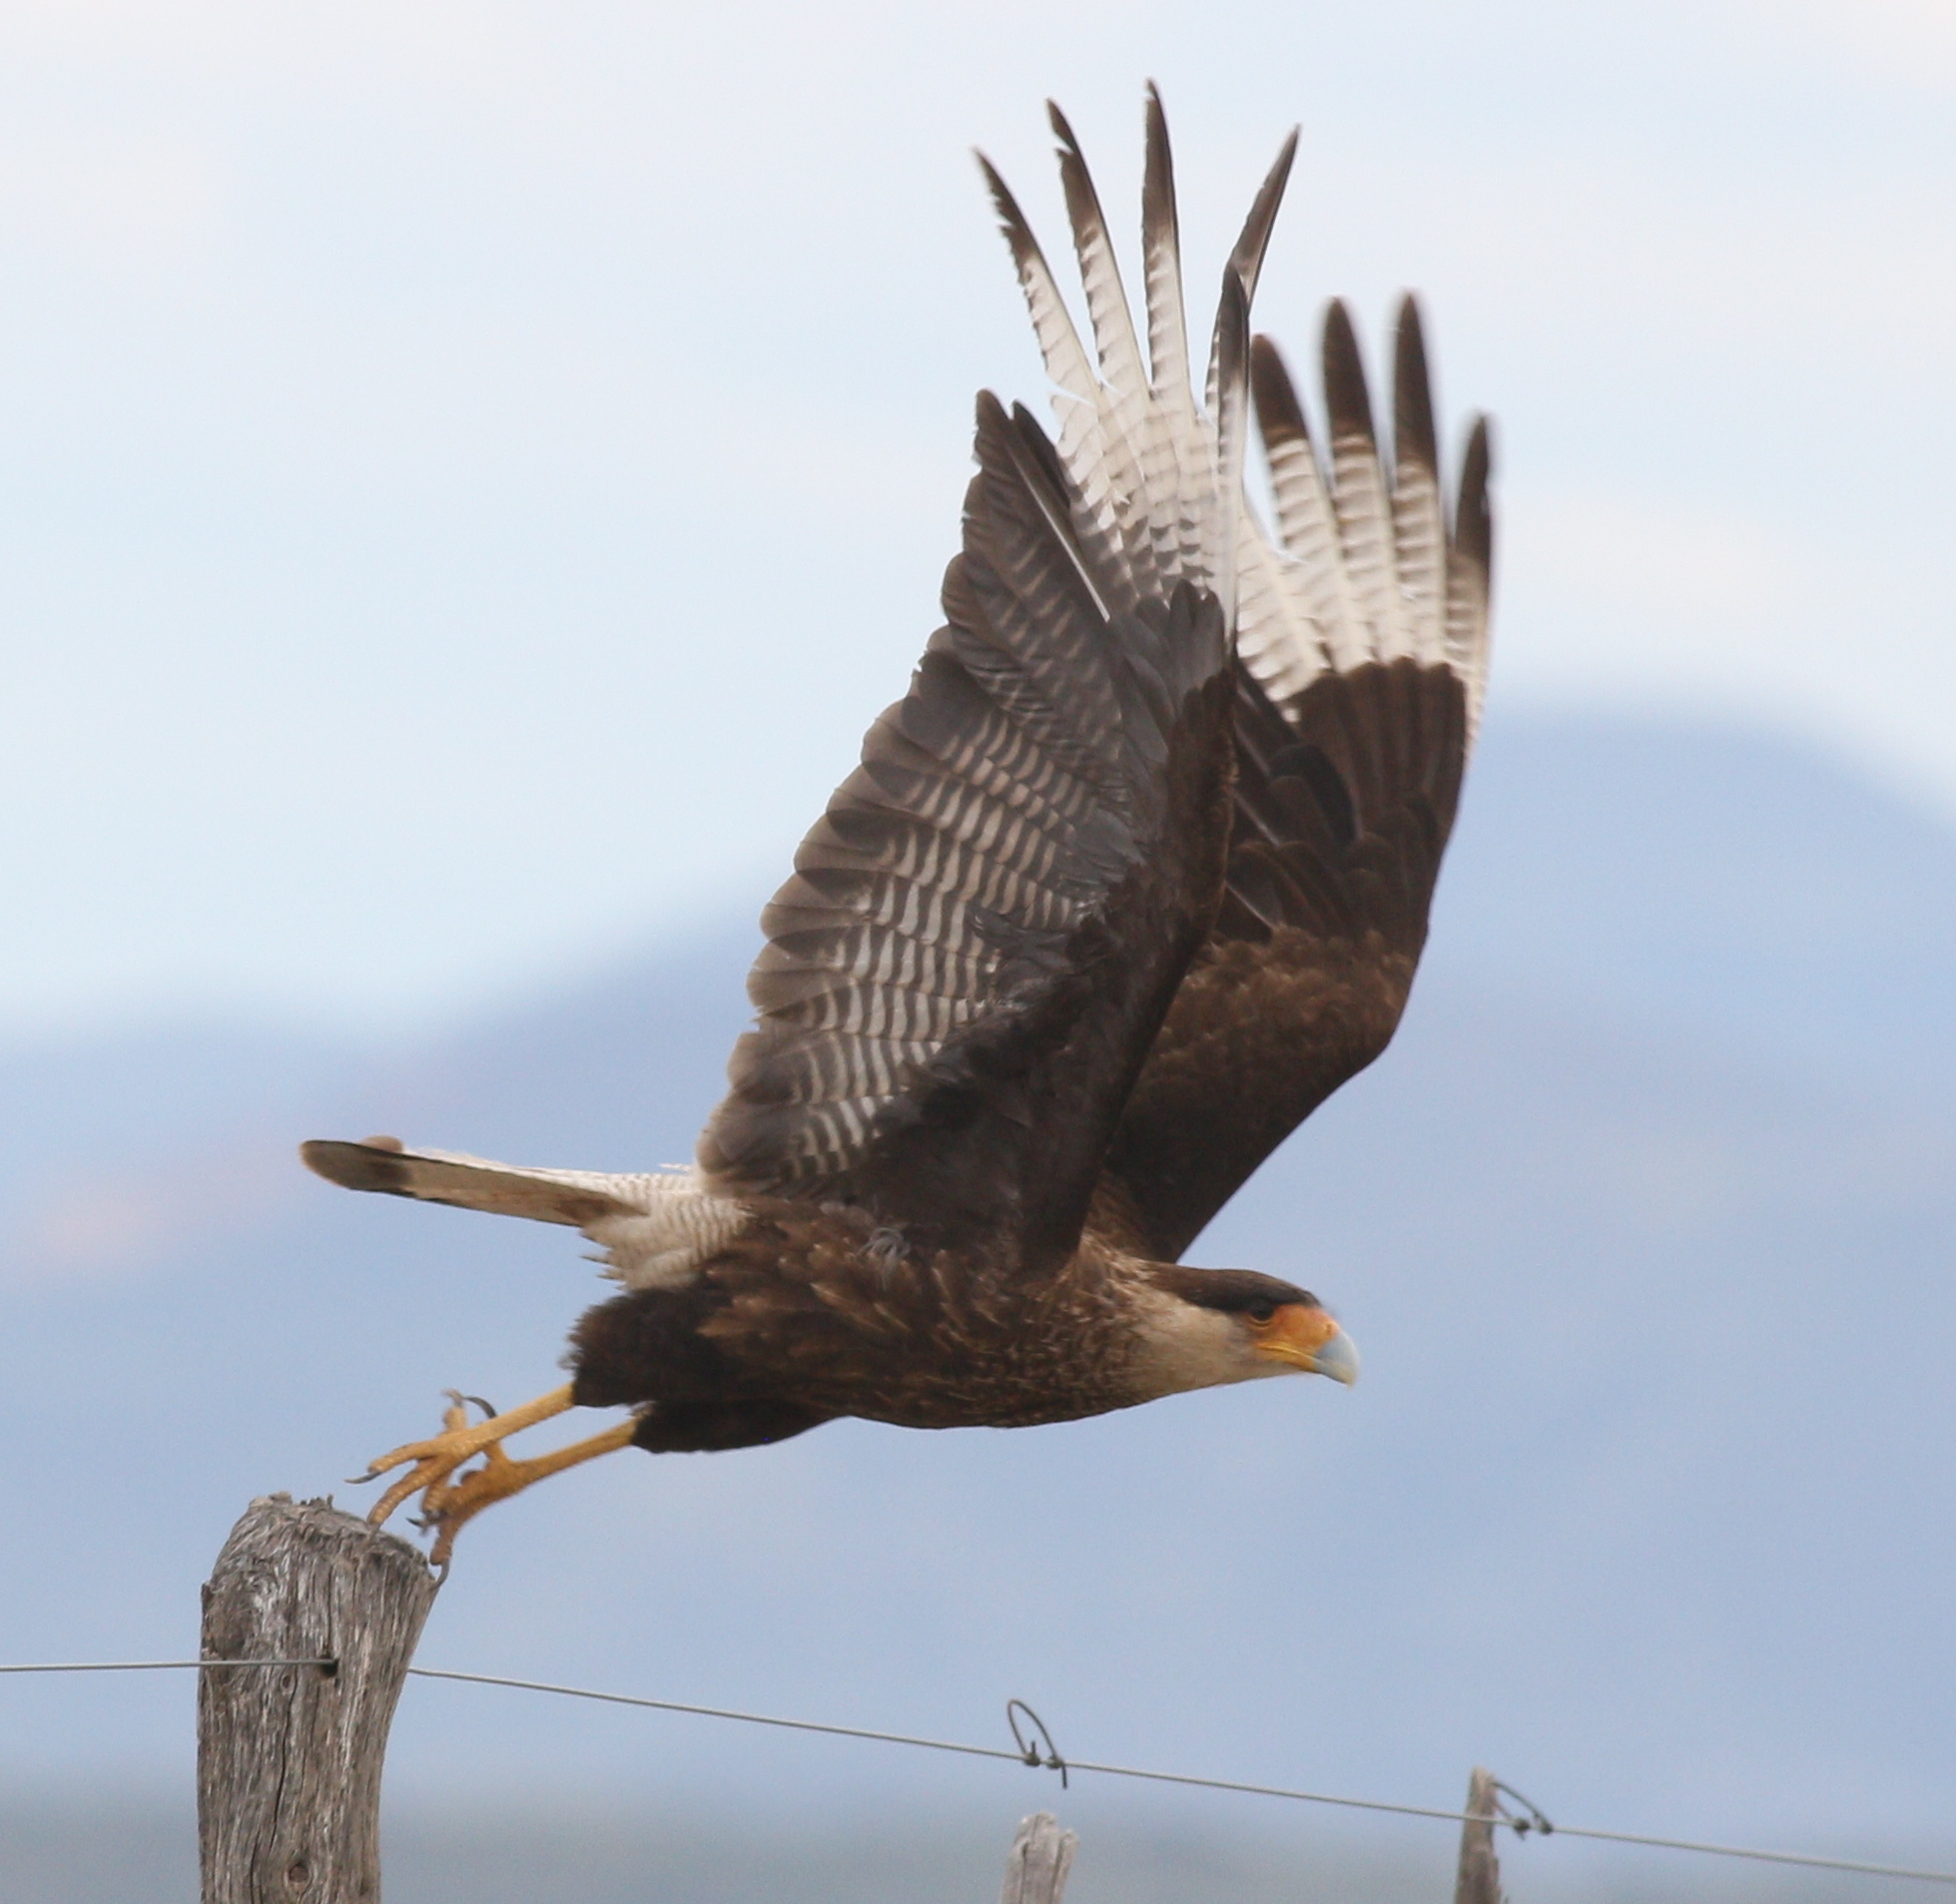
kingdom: Animalia
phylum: Chordata
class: Aves
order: Falconiformes
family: Falconidae
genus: Caracara
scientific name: Caracara plancus
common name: Southern caracara
